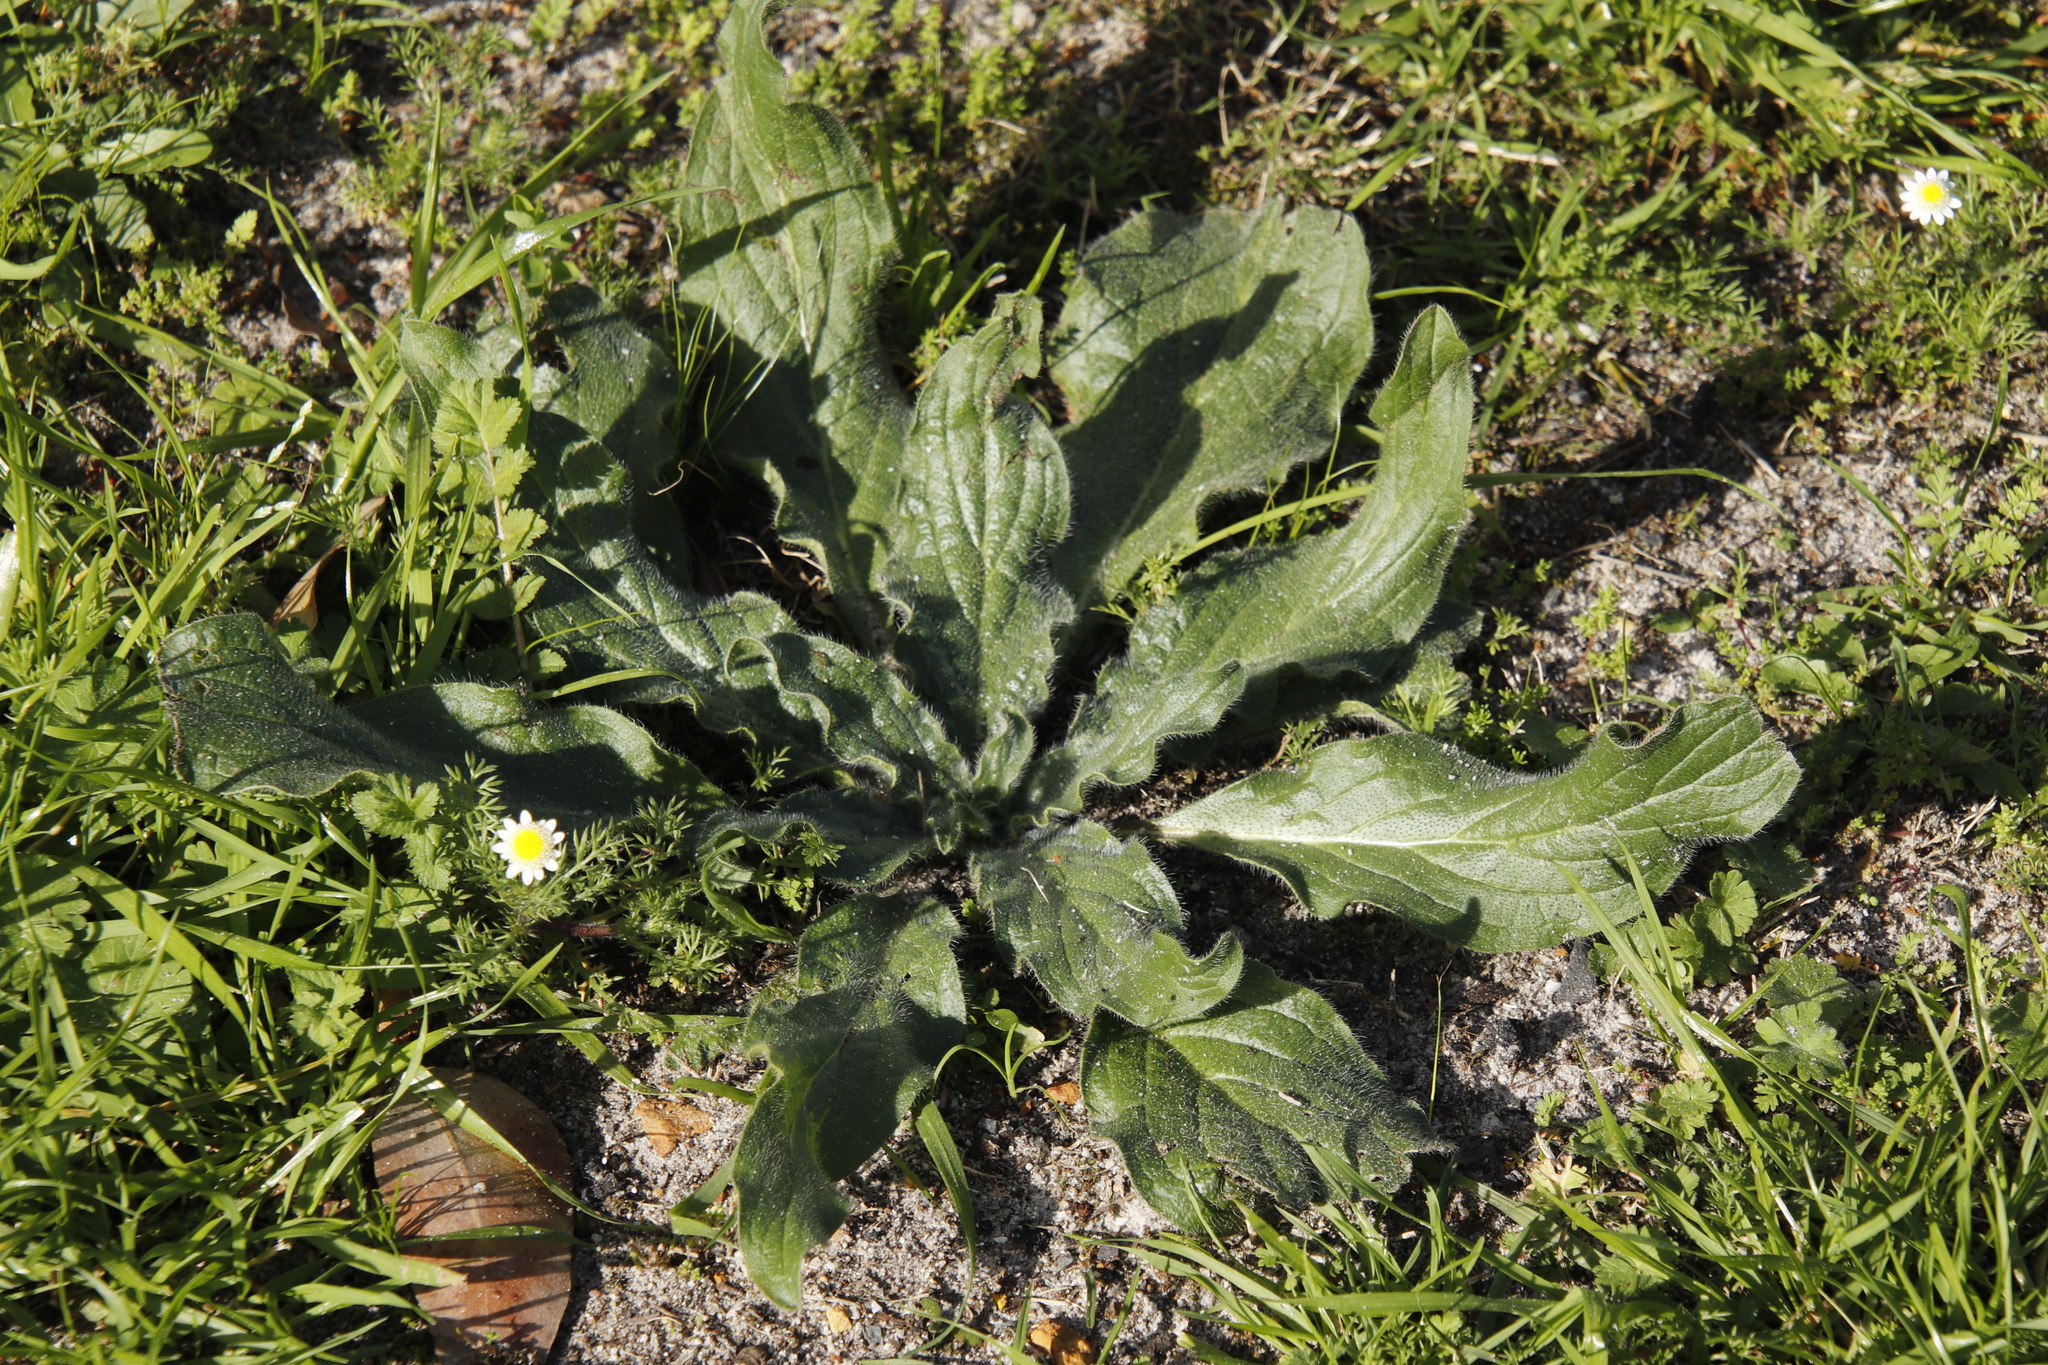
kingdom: Plantae
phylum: Tracheophyta
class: Magnoliopsida
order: Boraginales
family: Boraginaceae
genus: Echium
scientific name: Echium plantagineum
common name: Purple viper's-bugloss
